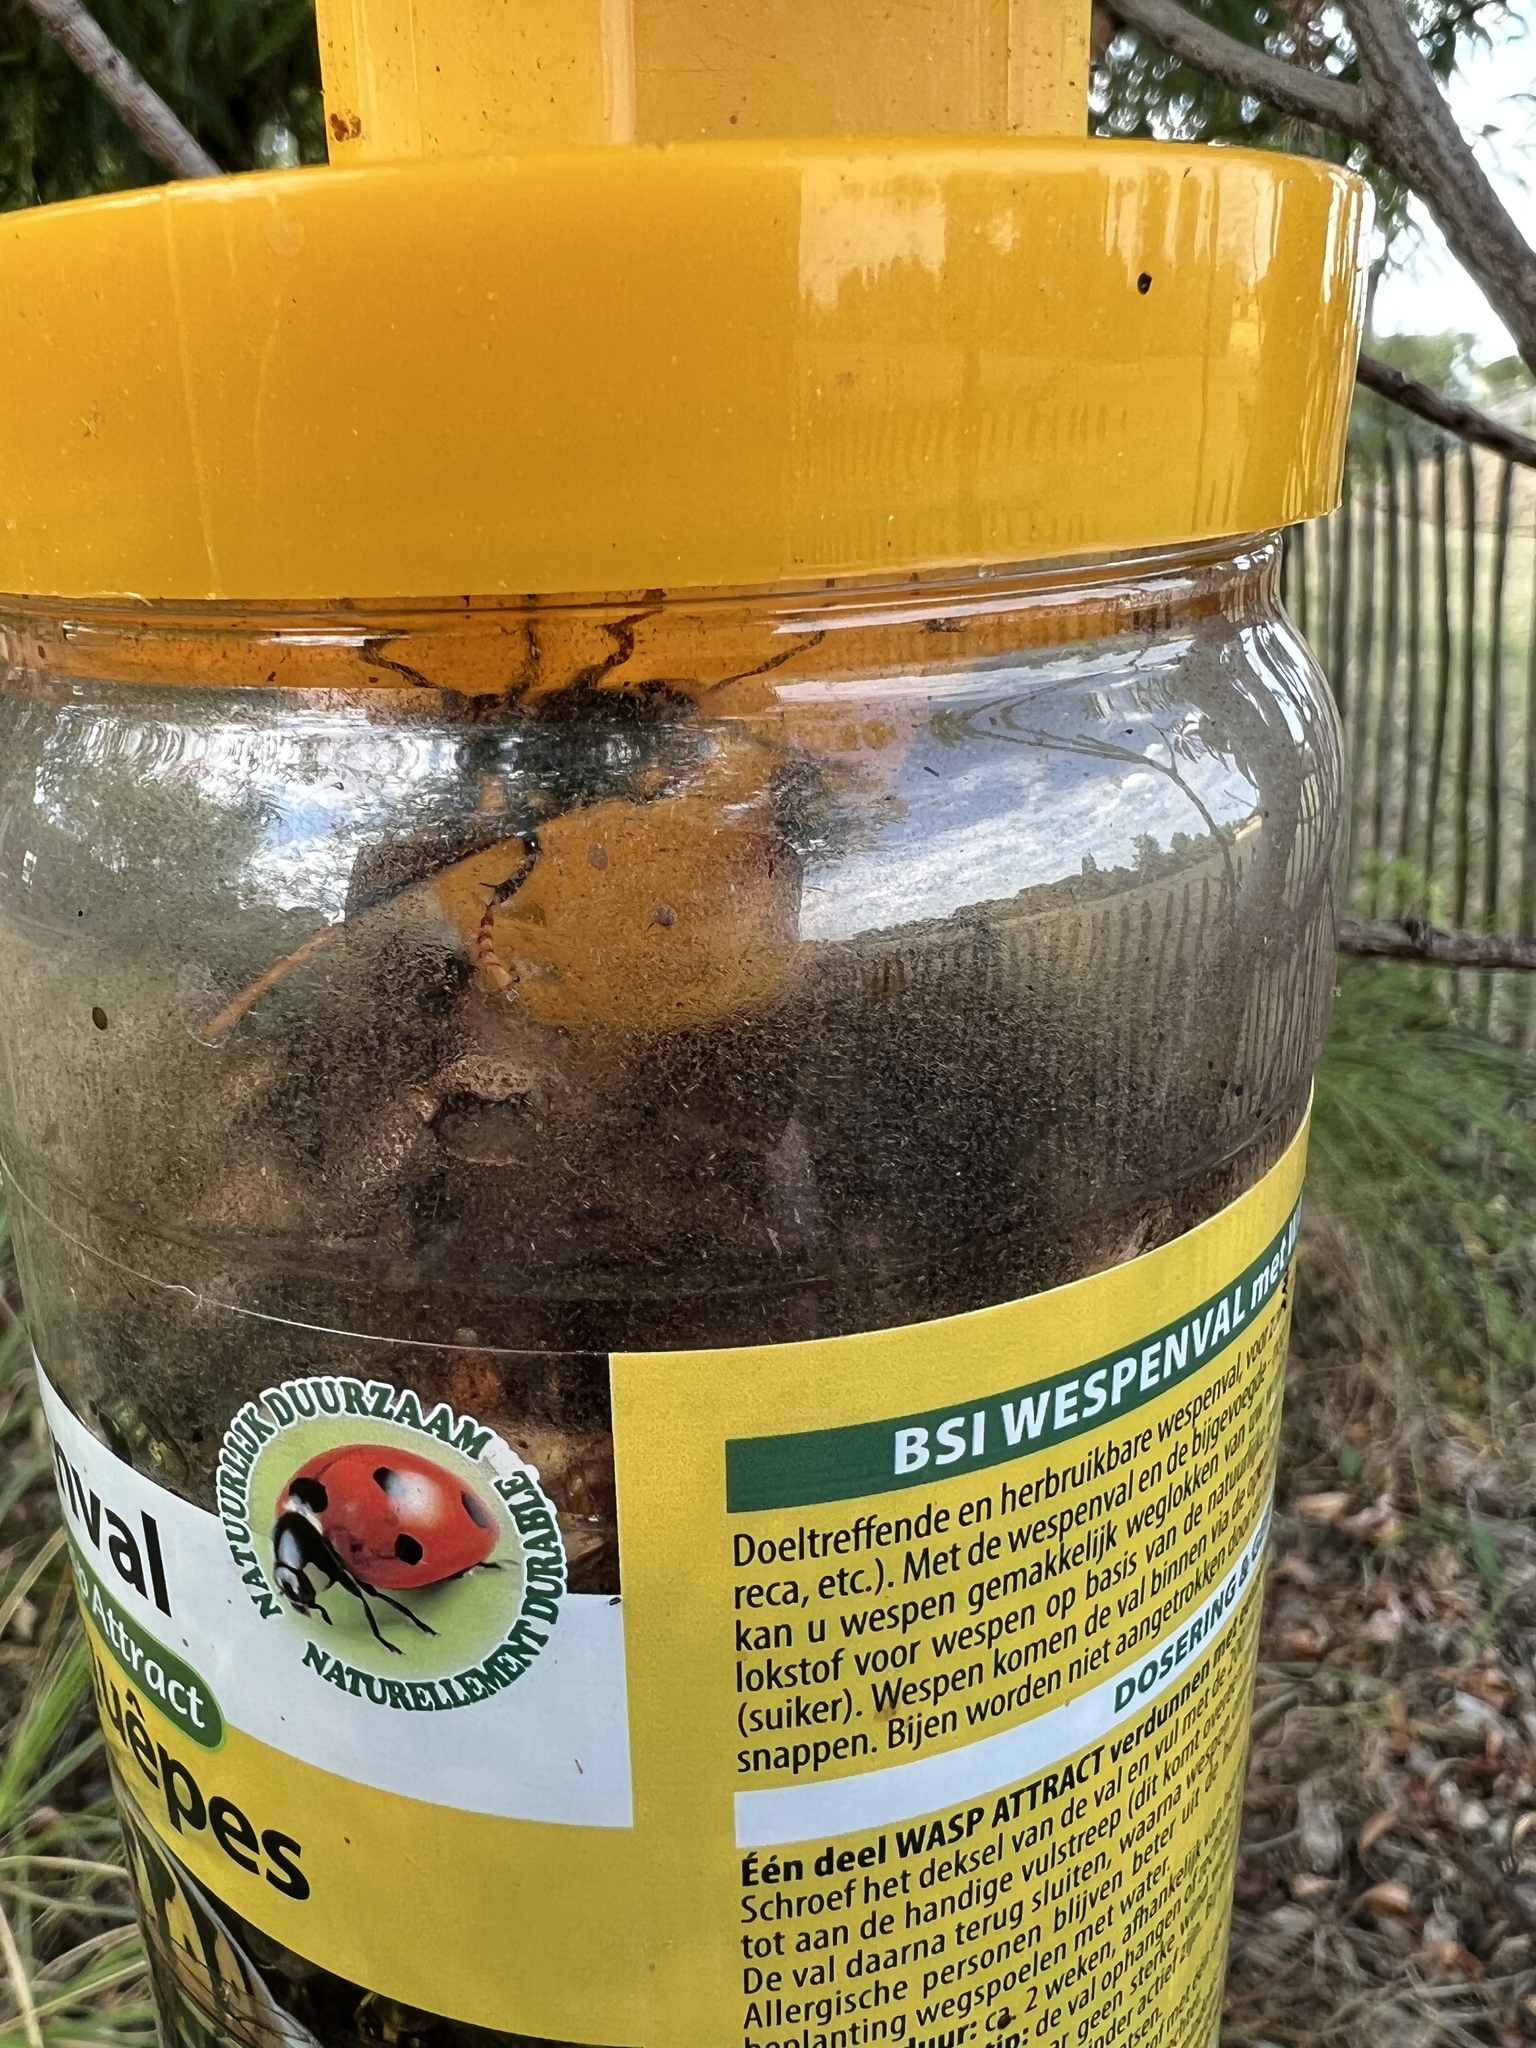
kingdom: Animalia
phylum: Arthropoda
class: Insecta
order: Hymenoptera
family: Vespidae
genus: Vespa
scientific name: Vespa velutina
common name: Asian hornet
